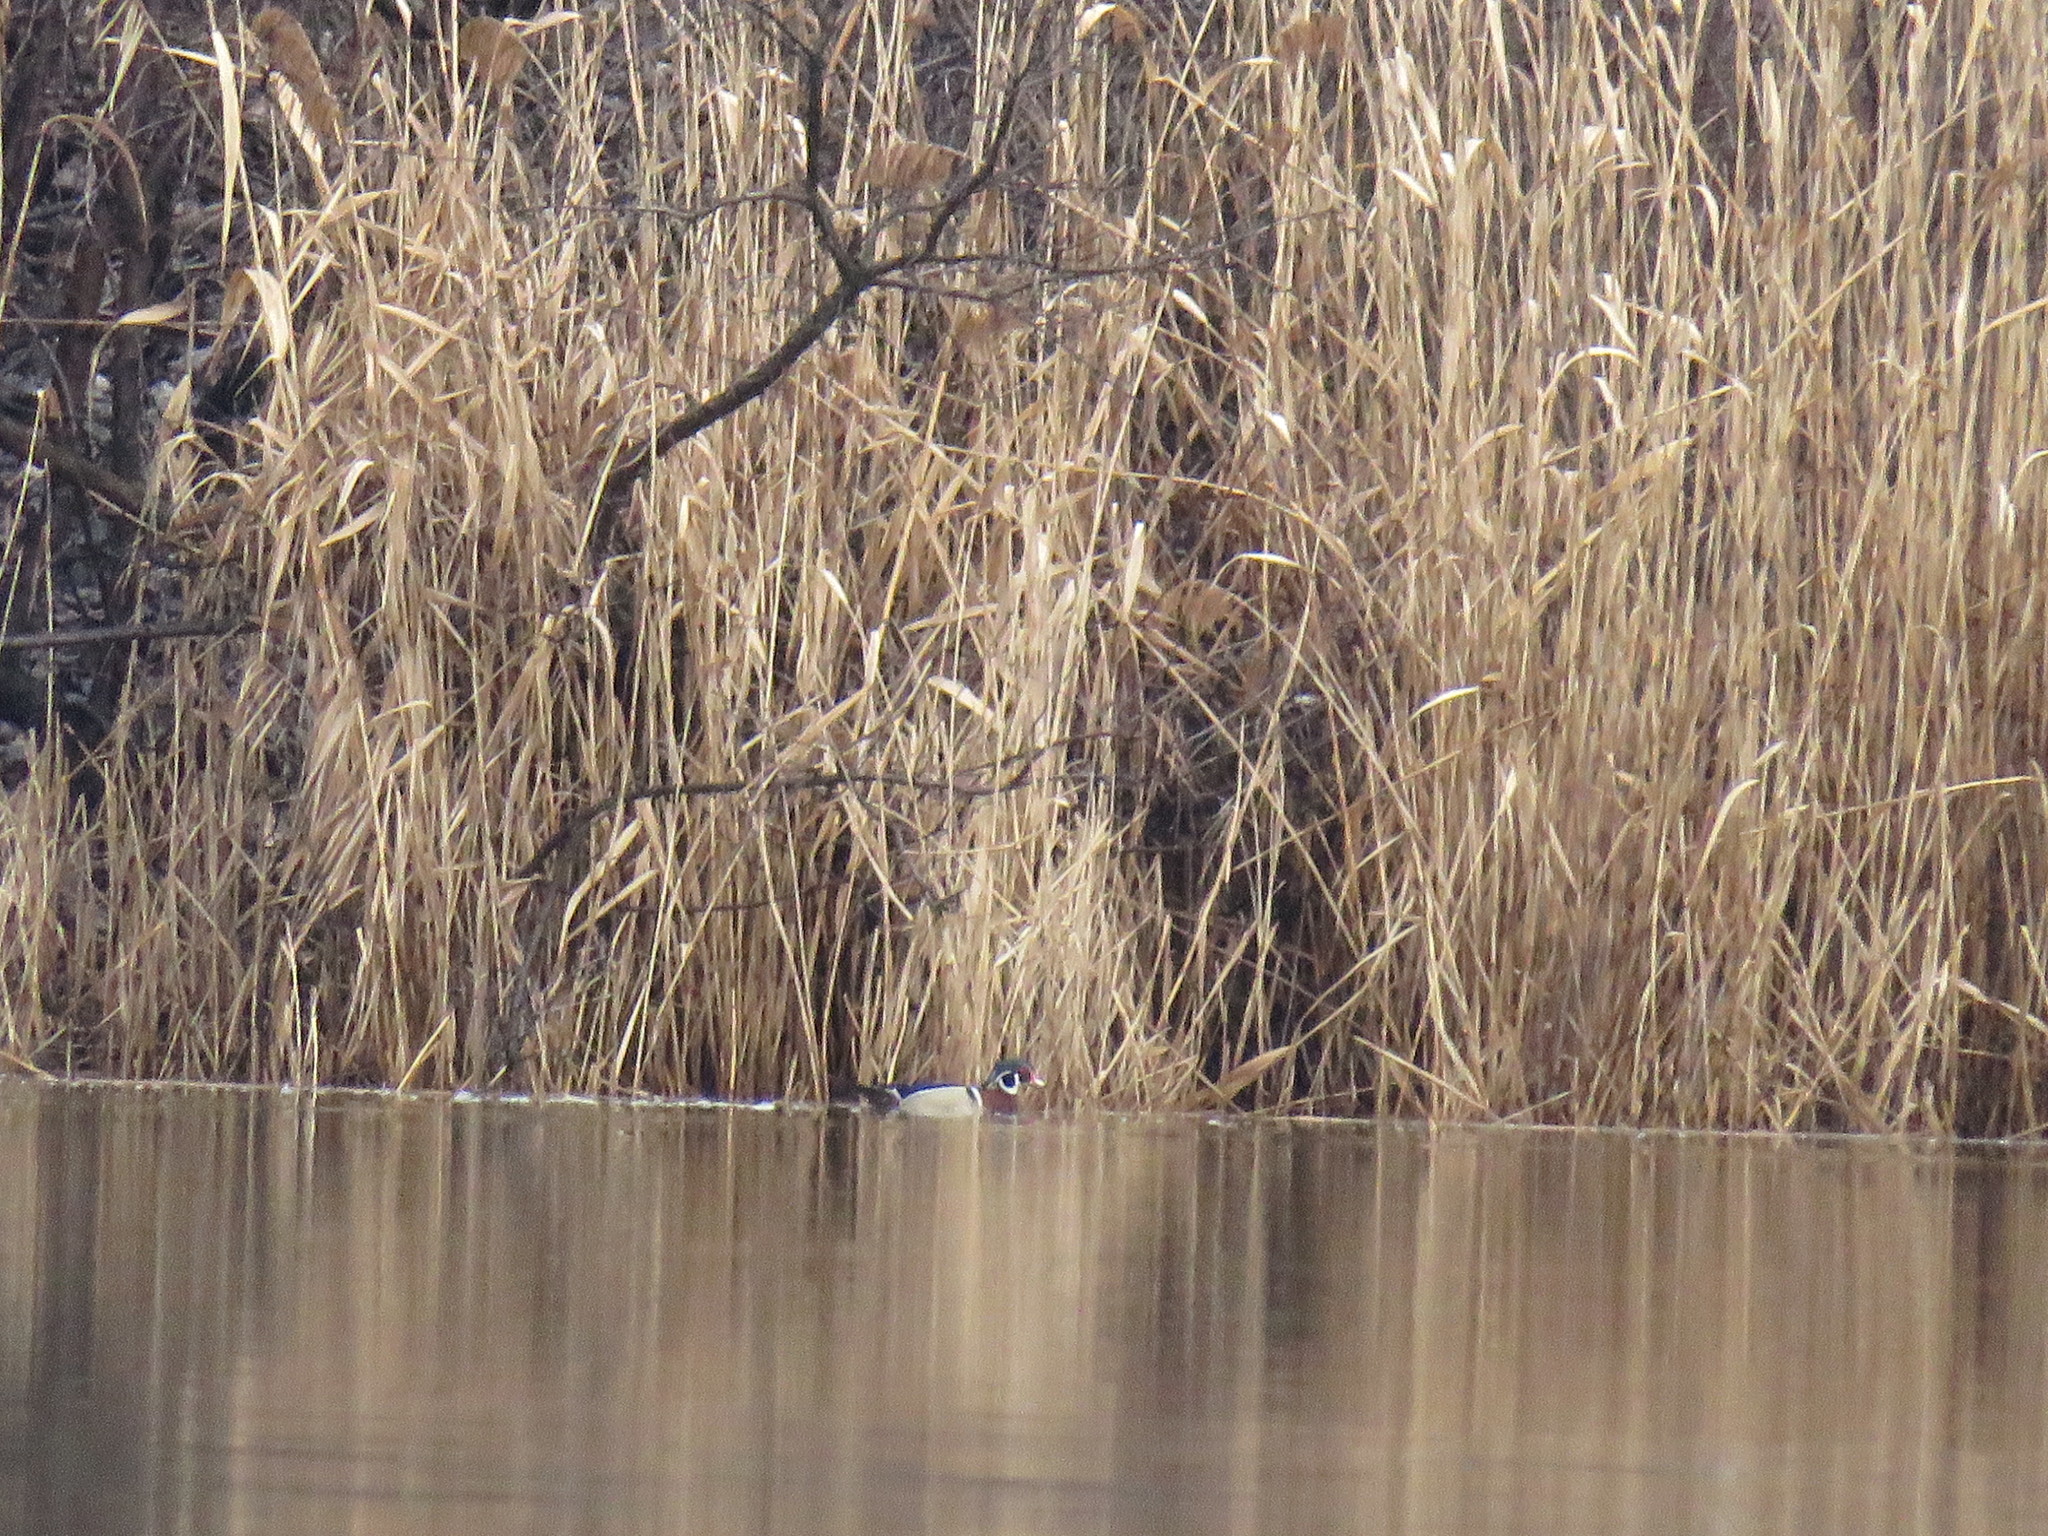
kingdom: Animalia
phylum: Chordata
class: Aves
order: Anseriformes
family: Anatidae
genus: Aix
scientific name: Aix sponsa
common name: Wood duck
